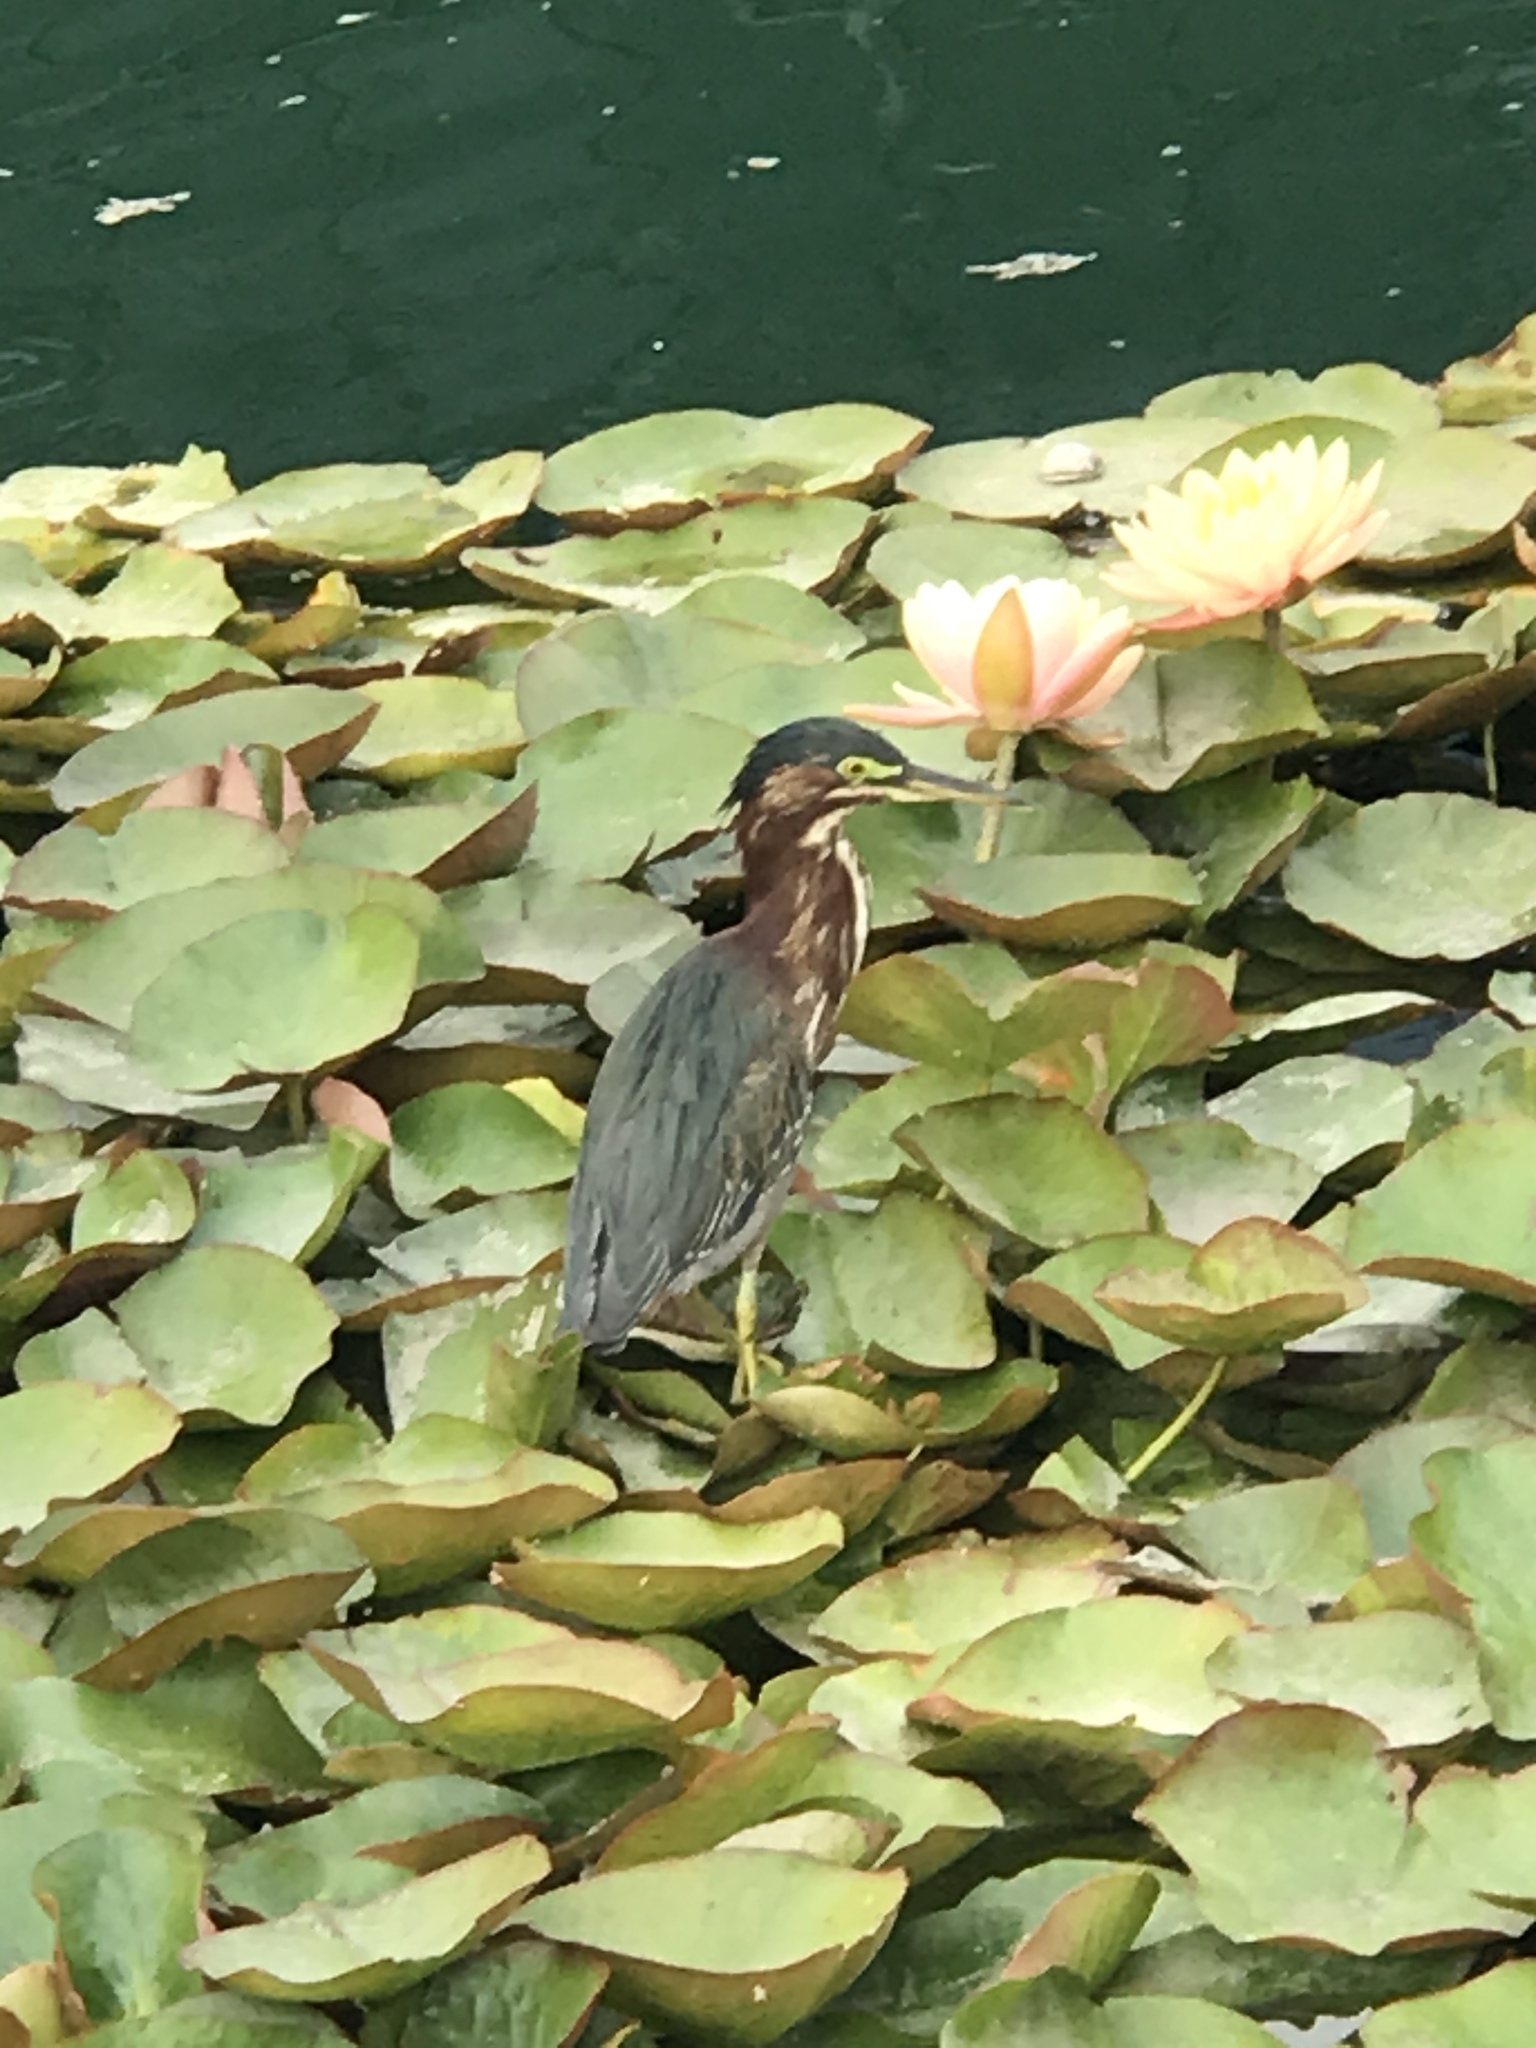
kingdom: Animalia
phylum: Chordata
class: Aves
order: Pelecaniformes
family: Ardeidae
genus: Butorides
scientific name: Butorides virescens
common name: Green heron
